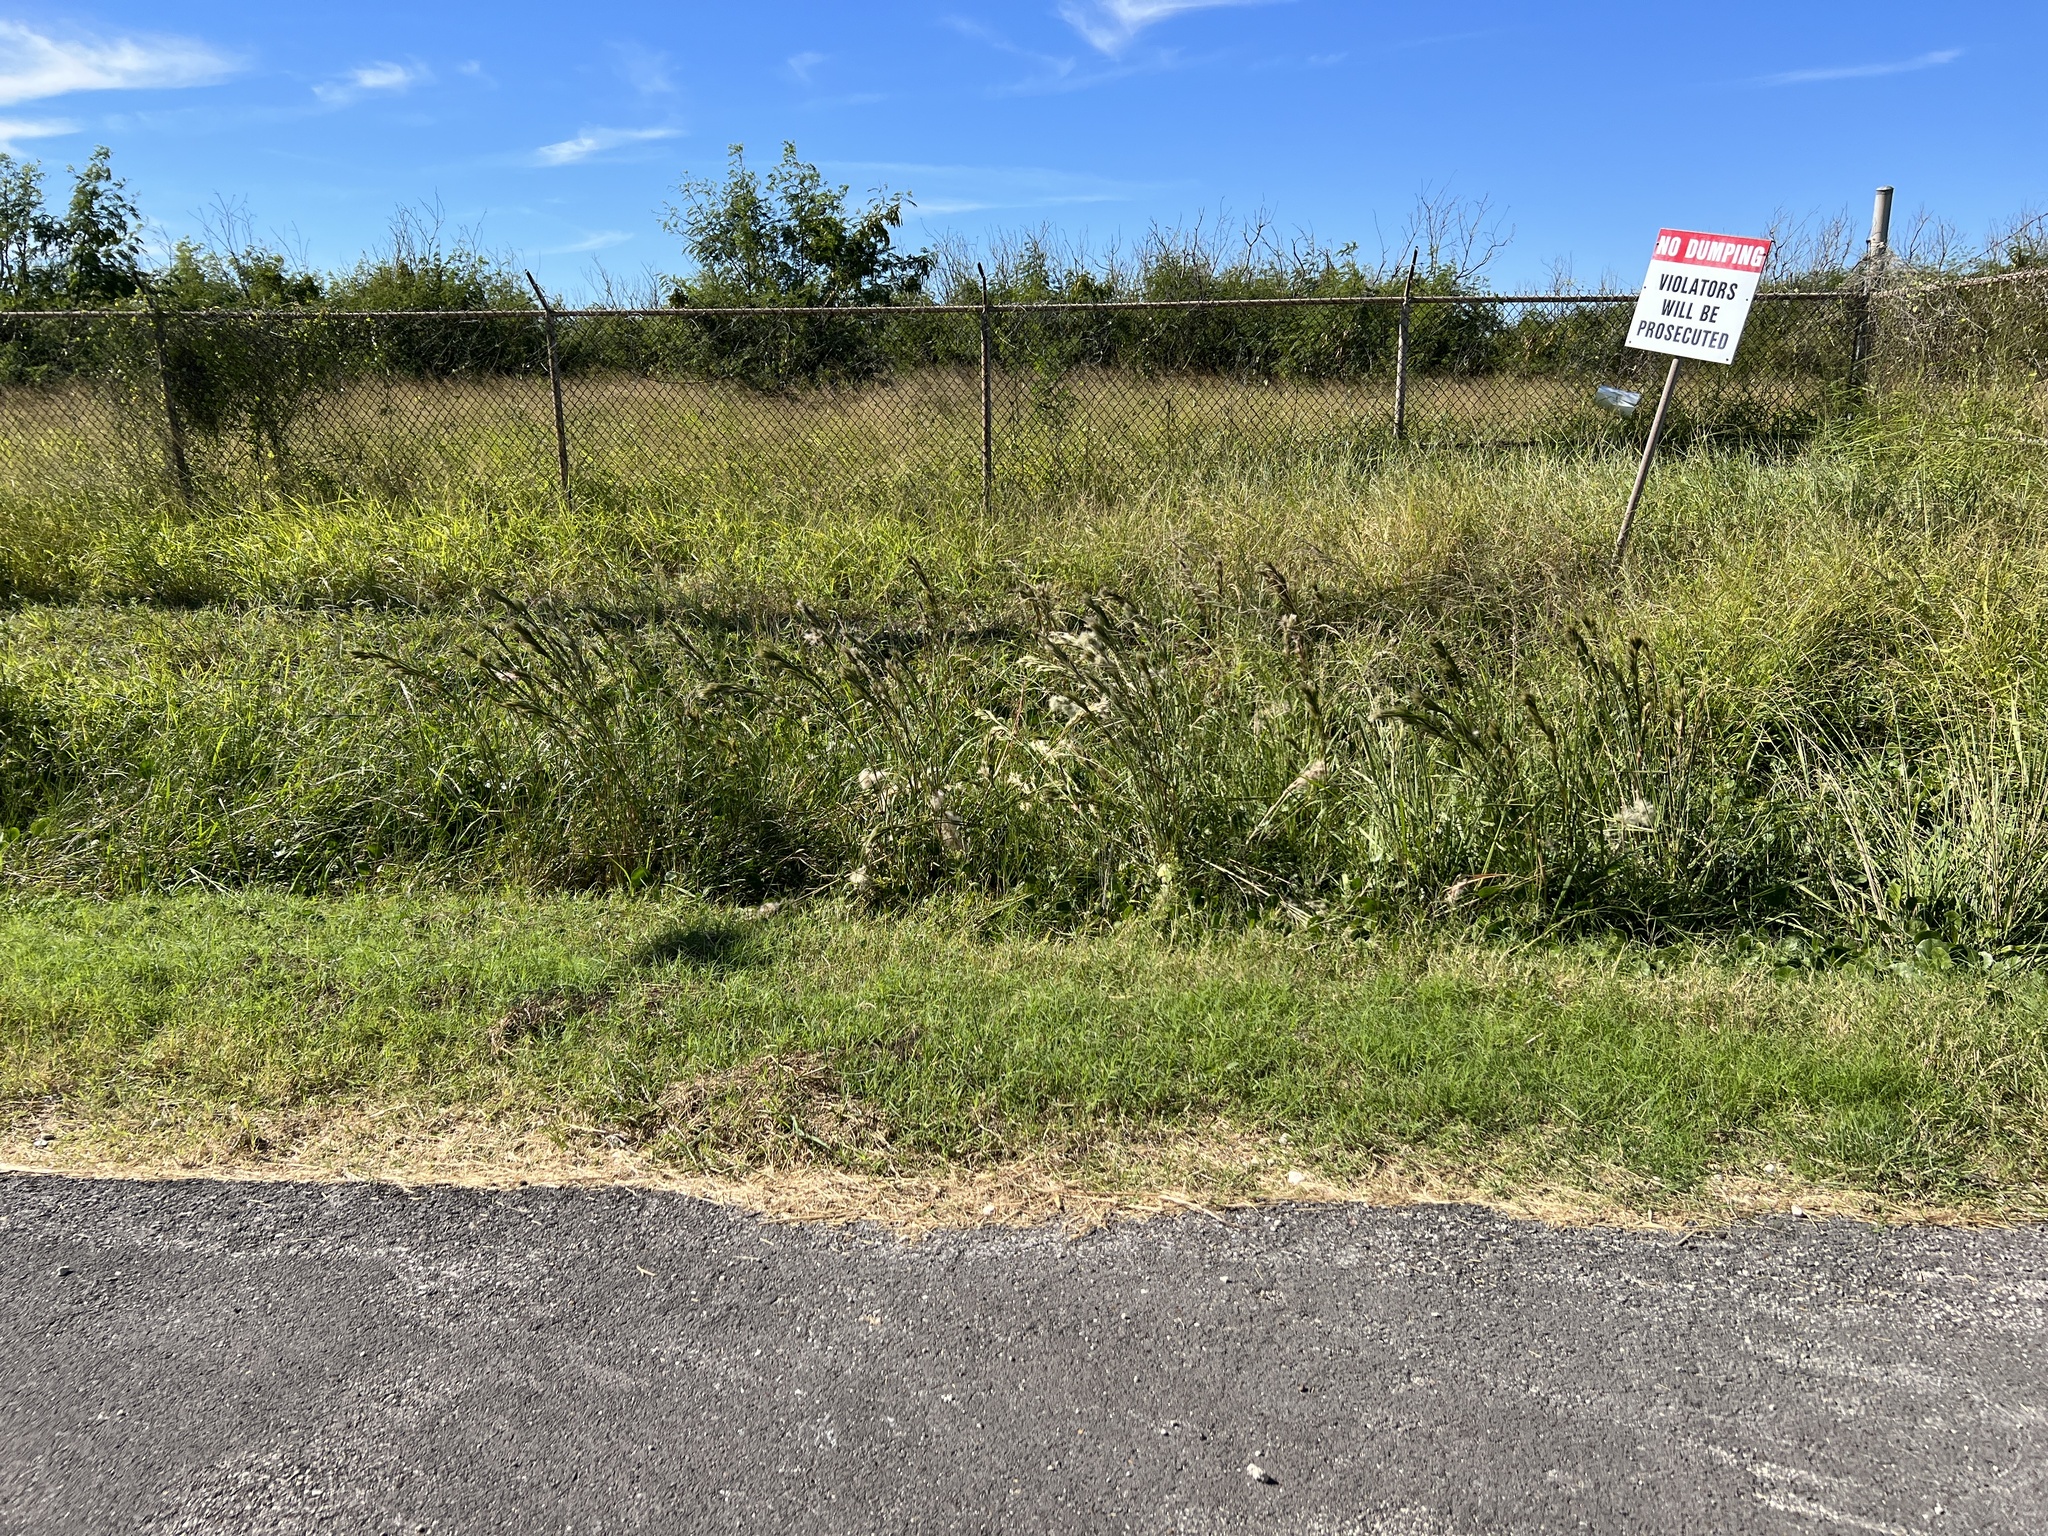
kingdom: Plantae
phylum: Tracheophyta
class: Liliopsida
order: Poales
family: Poaceae
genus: Andropogon
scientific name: Andropogon tenuispatheus
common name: Bushy bluestem
